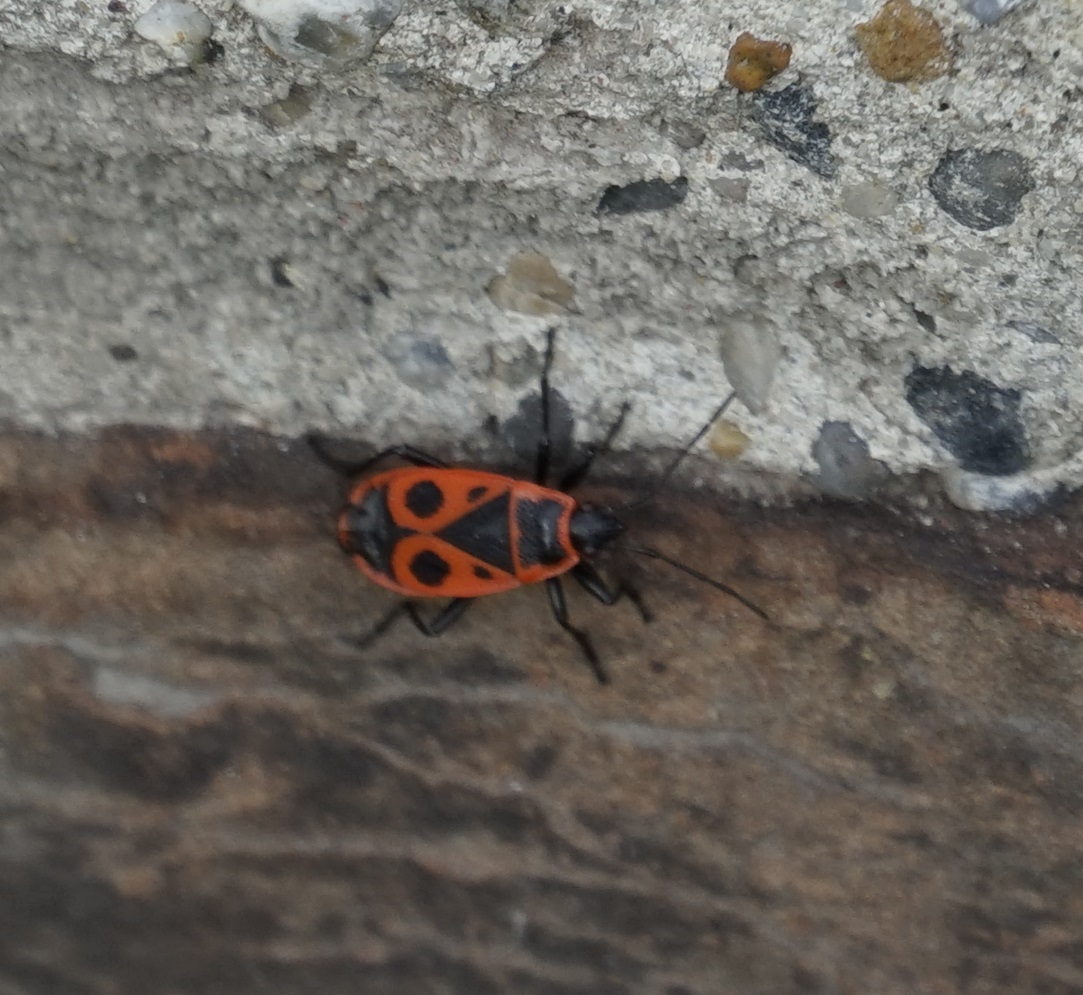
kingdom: Animalia
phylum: Arthropoda
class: Insecta
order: Hemiptera
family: Pyrrhocoridae
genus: Pyrrhocoris
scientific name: Pyrrhocoris apterus
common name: Firebug
